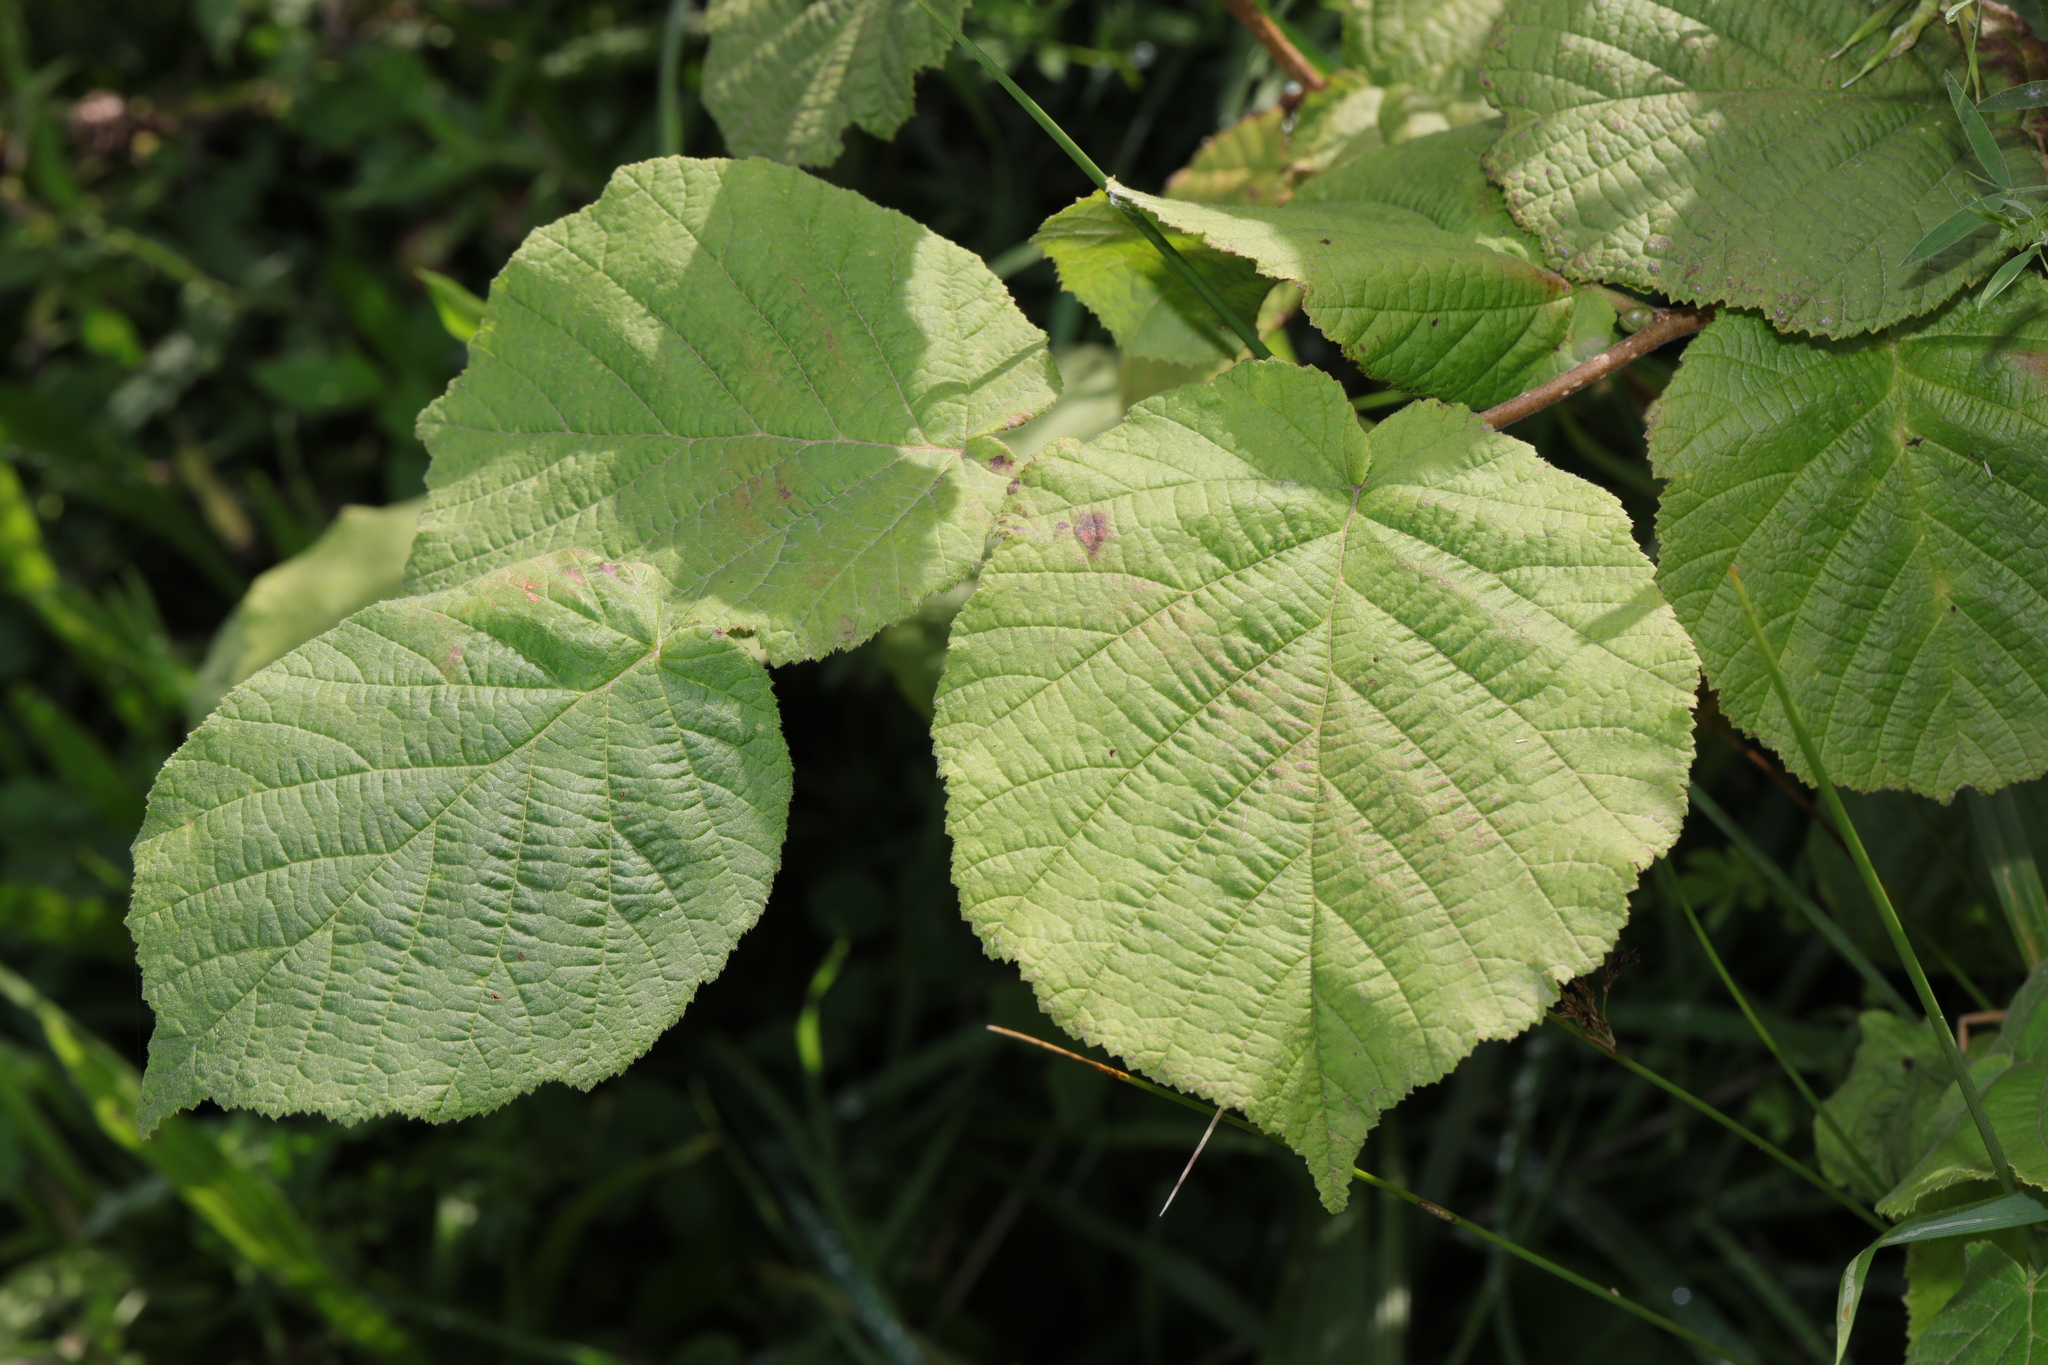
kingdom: Plantae
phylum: Tracheophyta
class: Magnoliopsida
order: Fagales
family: Betulaceae
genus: Corylus
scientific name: Corylus avellana
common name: European hazel
